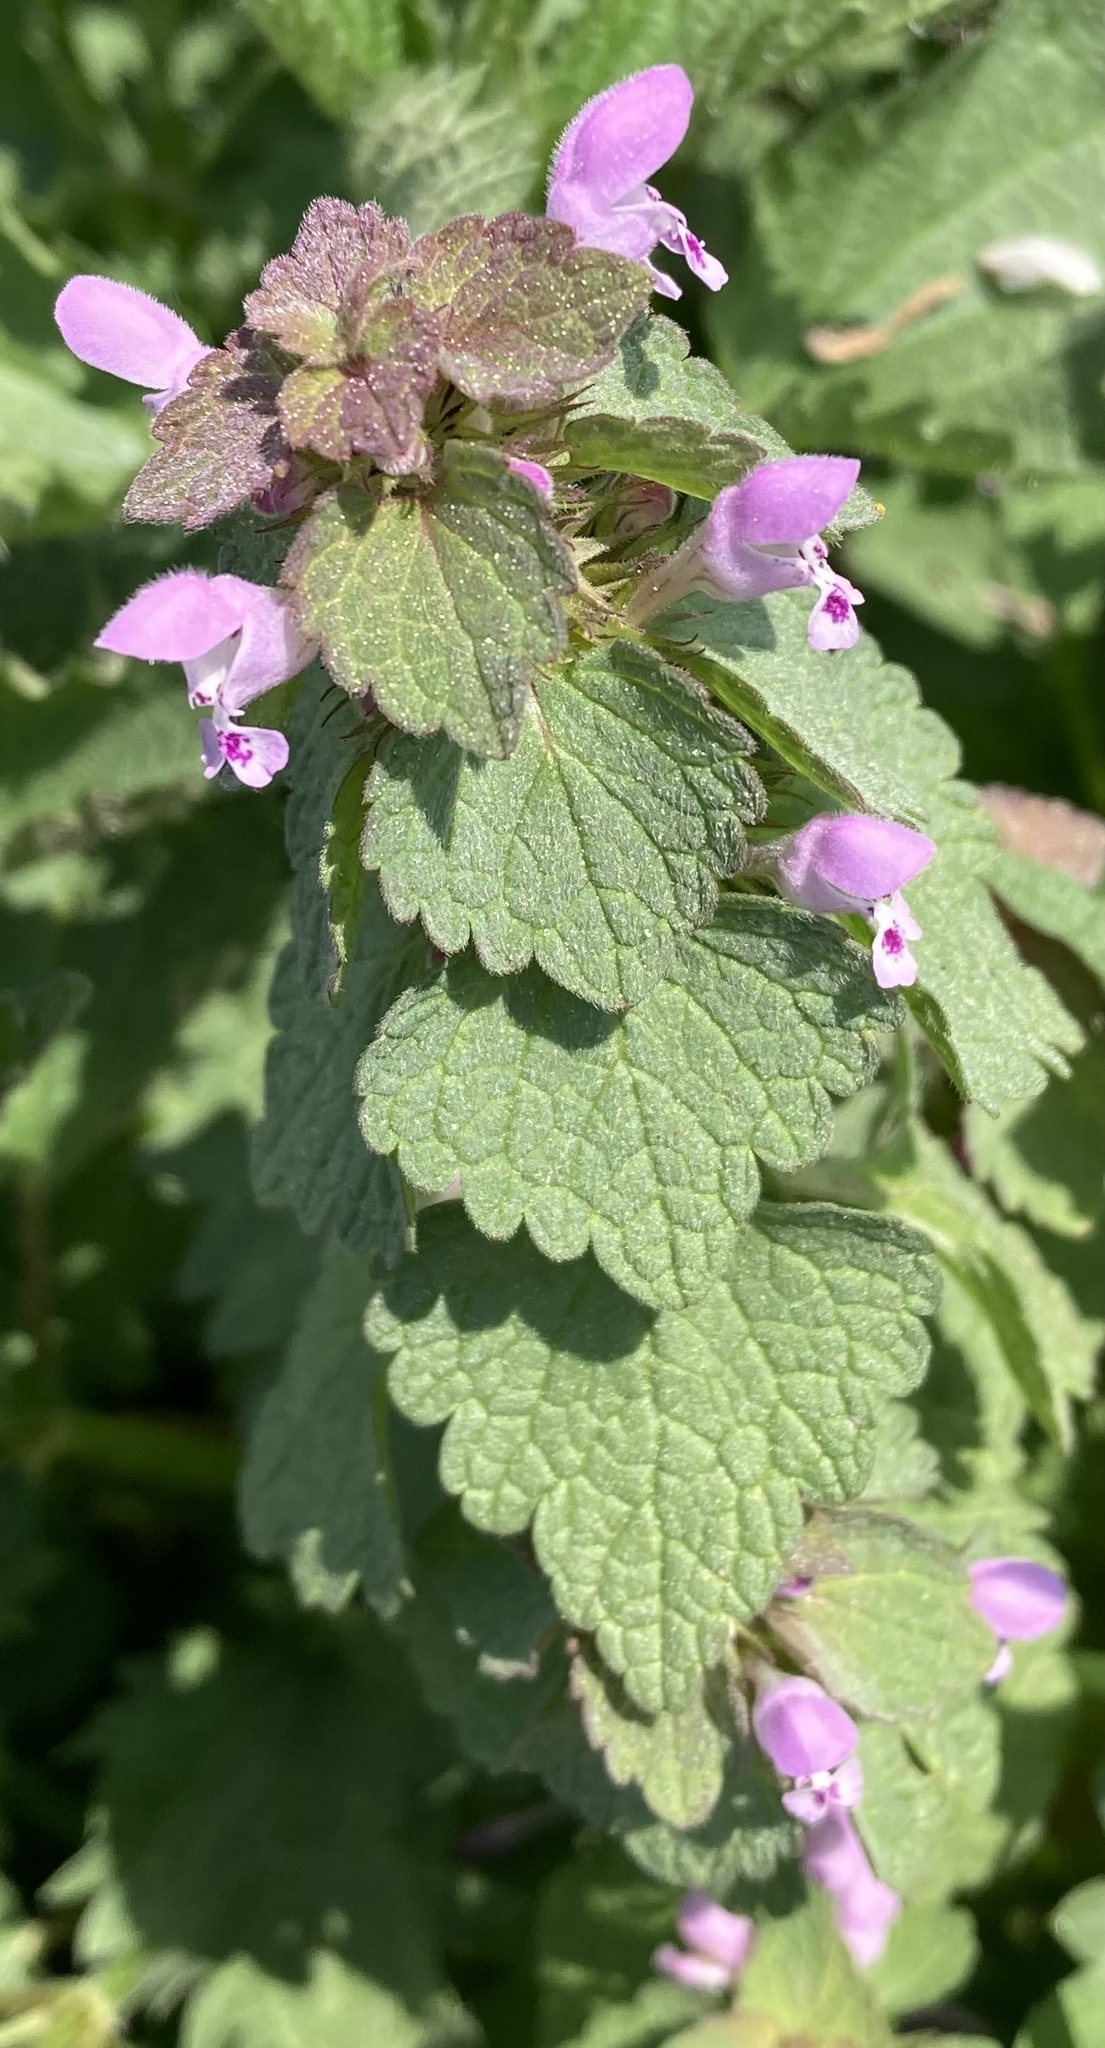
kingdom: Plantae
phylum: Tracheophyta
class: Magnoliopsida
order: Lamiales
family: Lamiaceae
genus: Lamium
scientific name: Lamium purpureum
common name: Red dead-nettle
